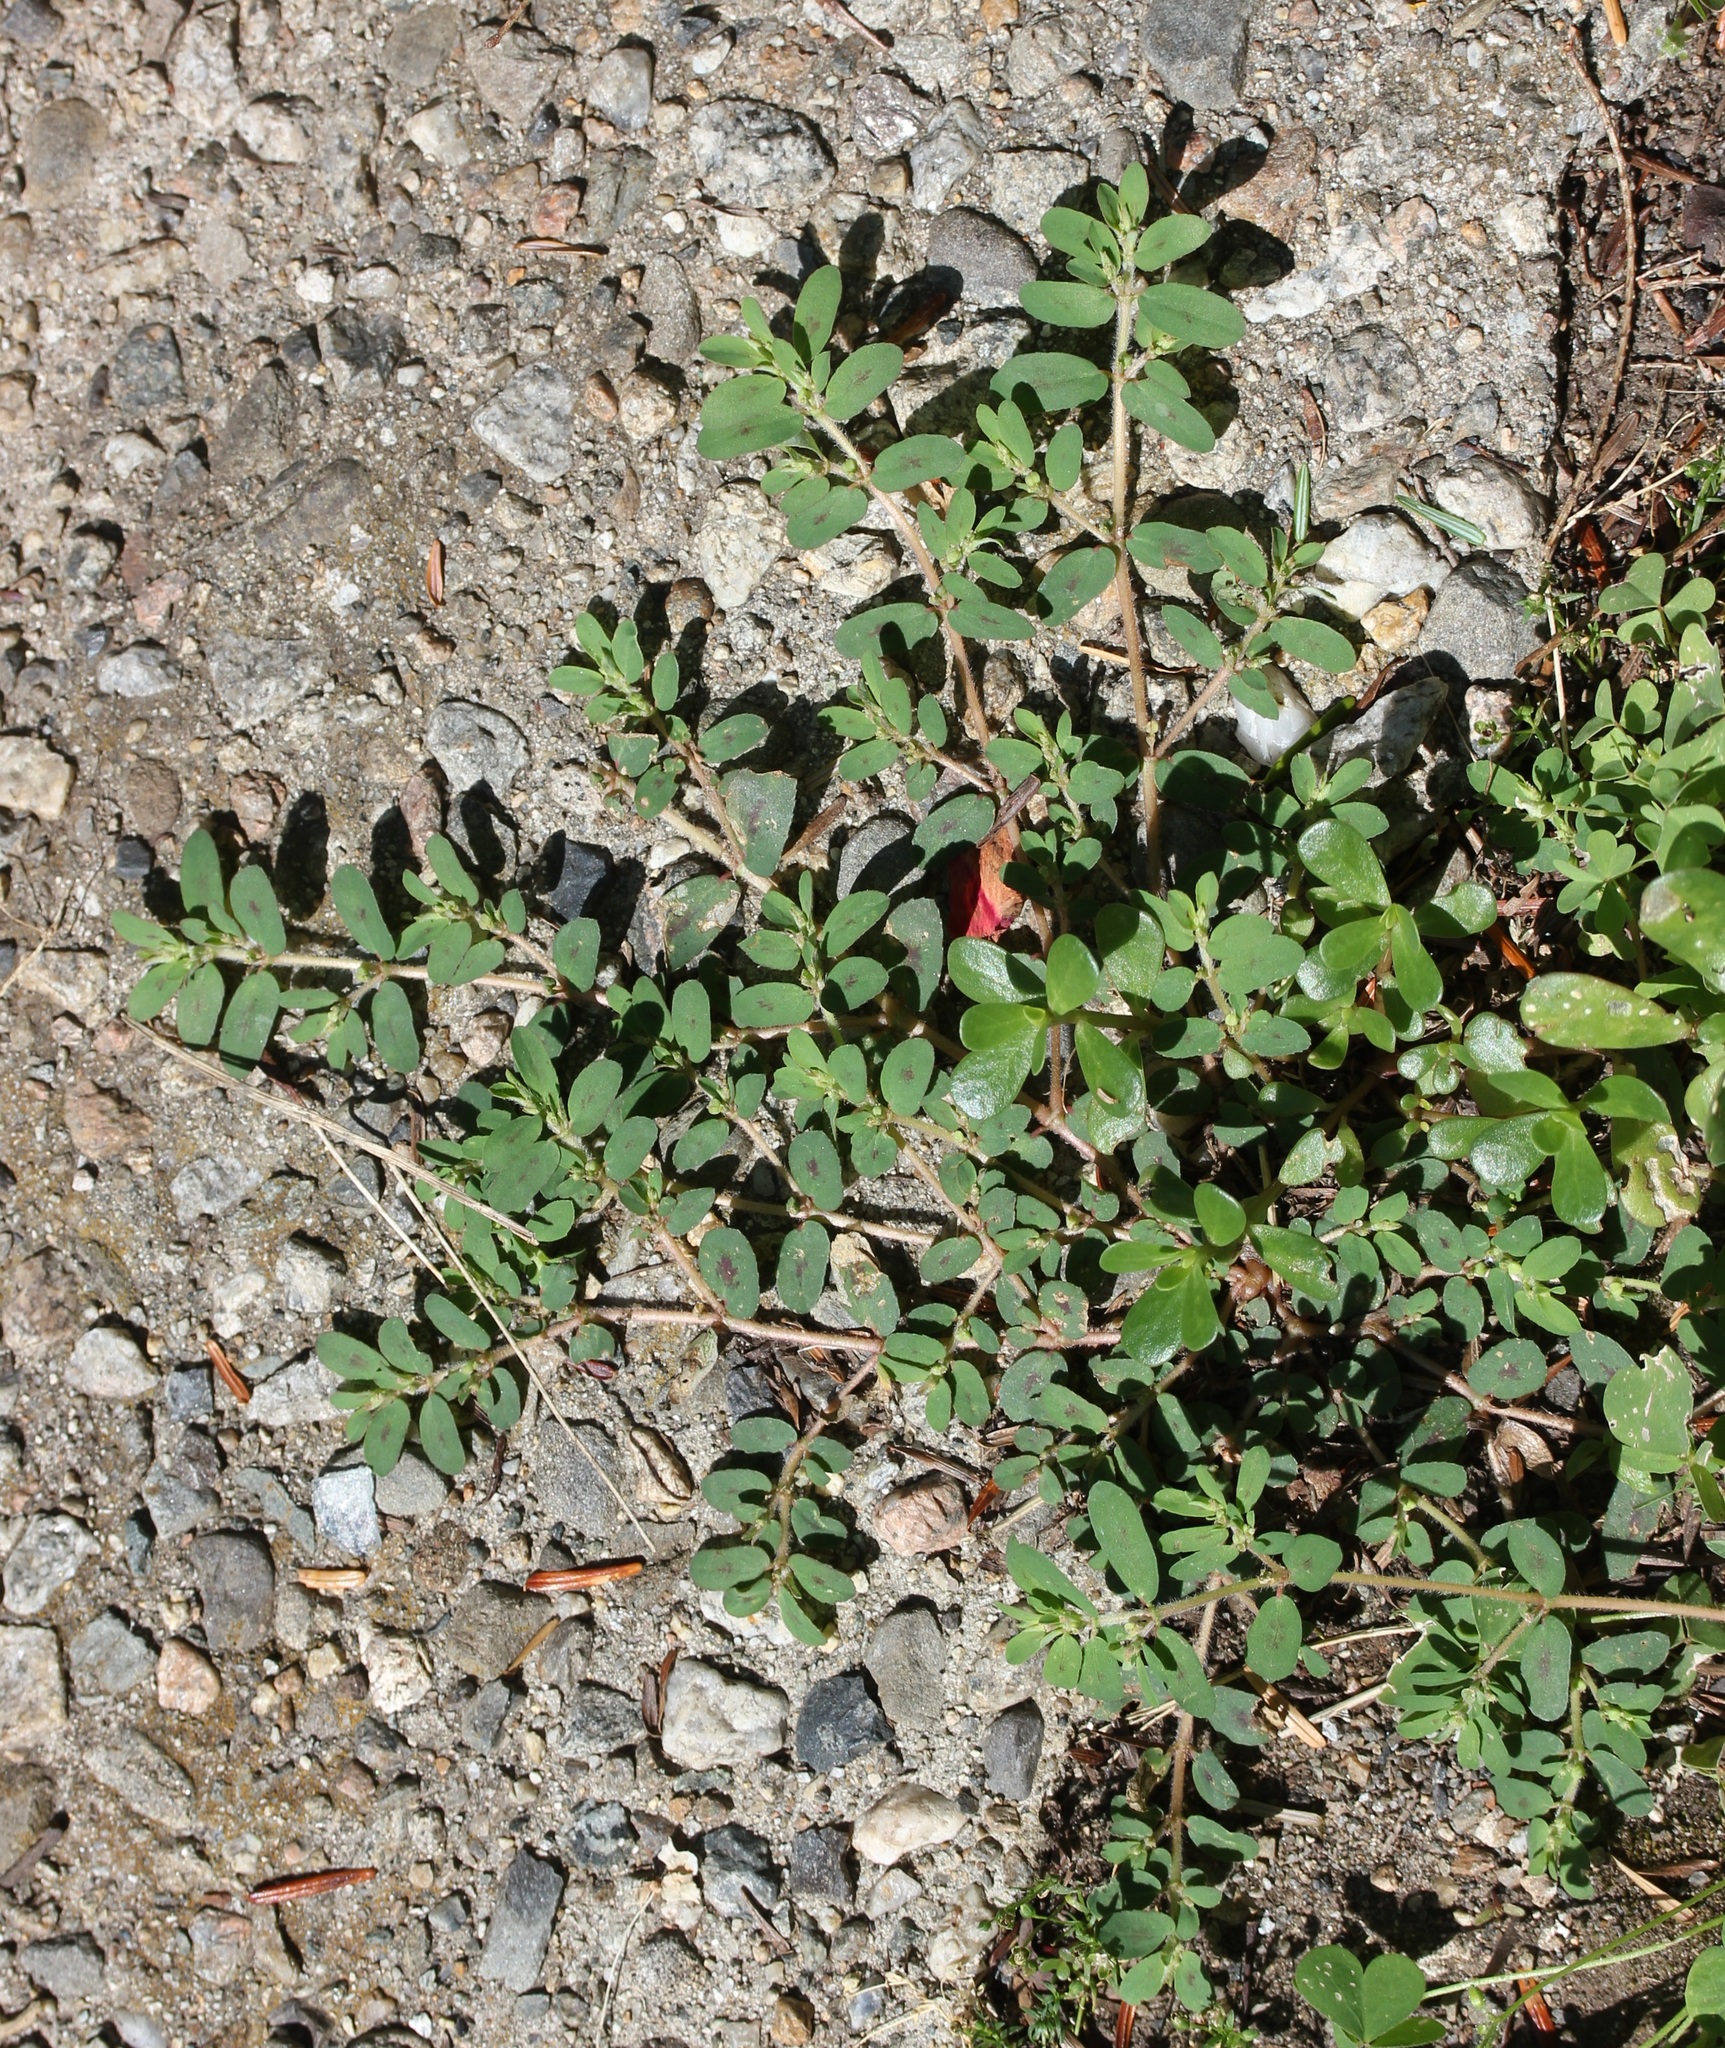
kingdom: Plantae
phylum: Tracheophyta
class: Magnoliopsida
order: Malpighiales
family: Euphorbiaceae
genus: Euphorbia
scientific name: Euphorbia maculata
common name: Spotted spurge
